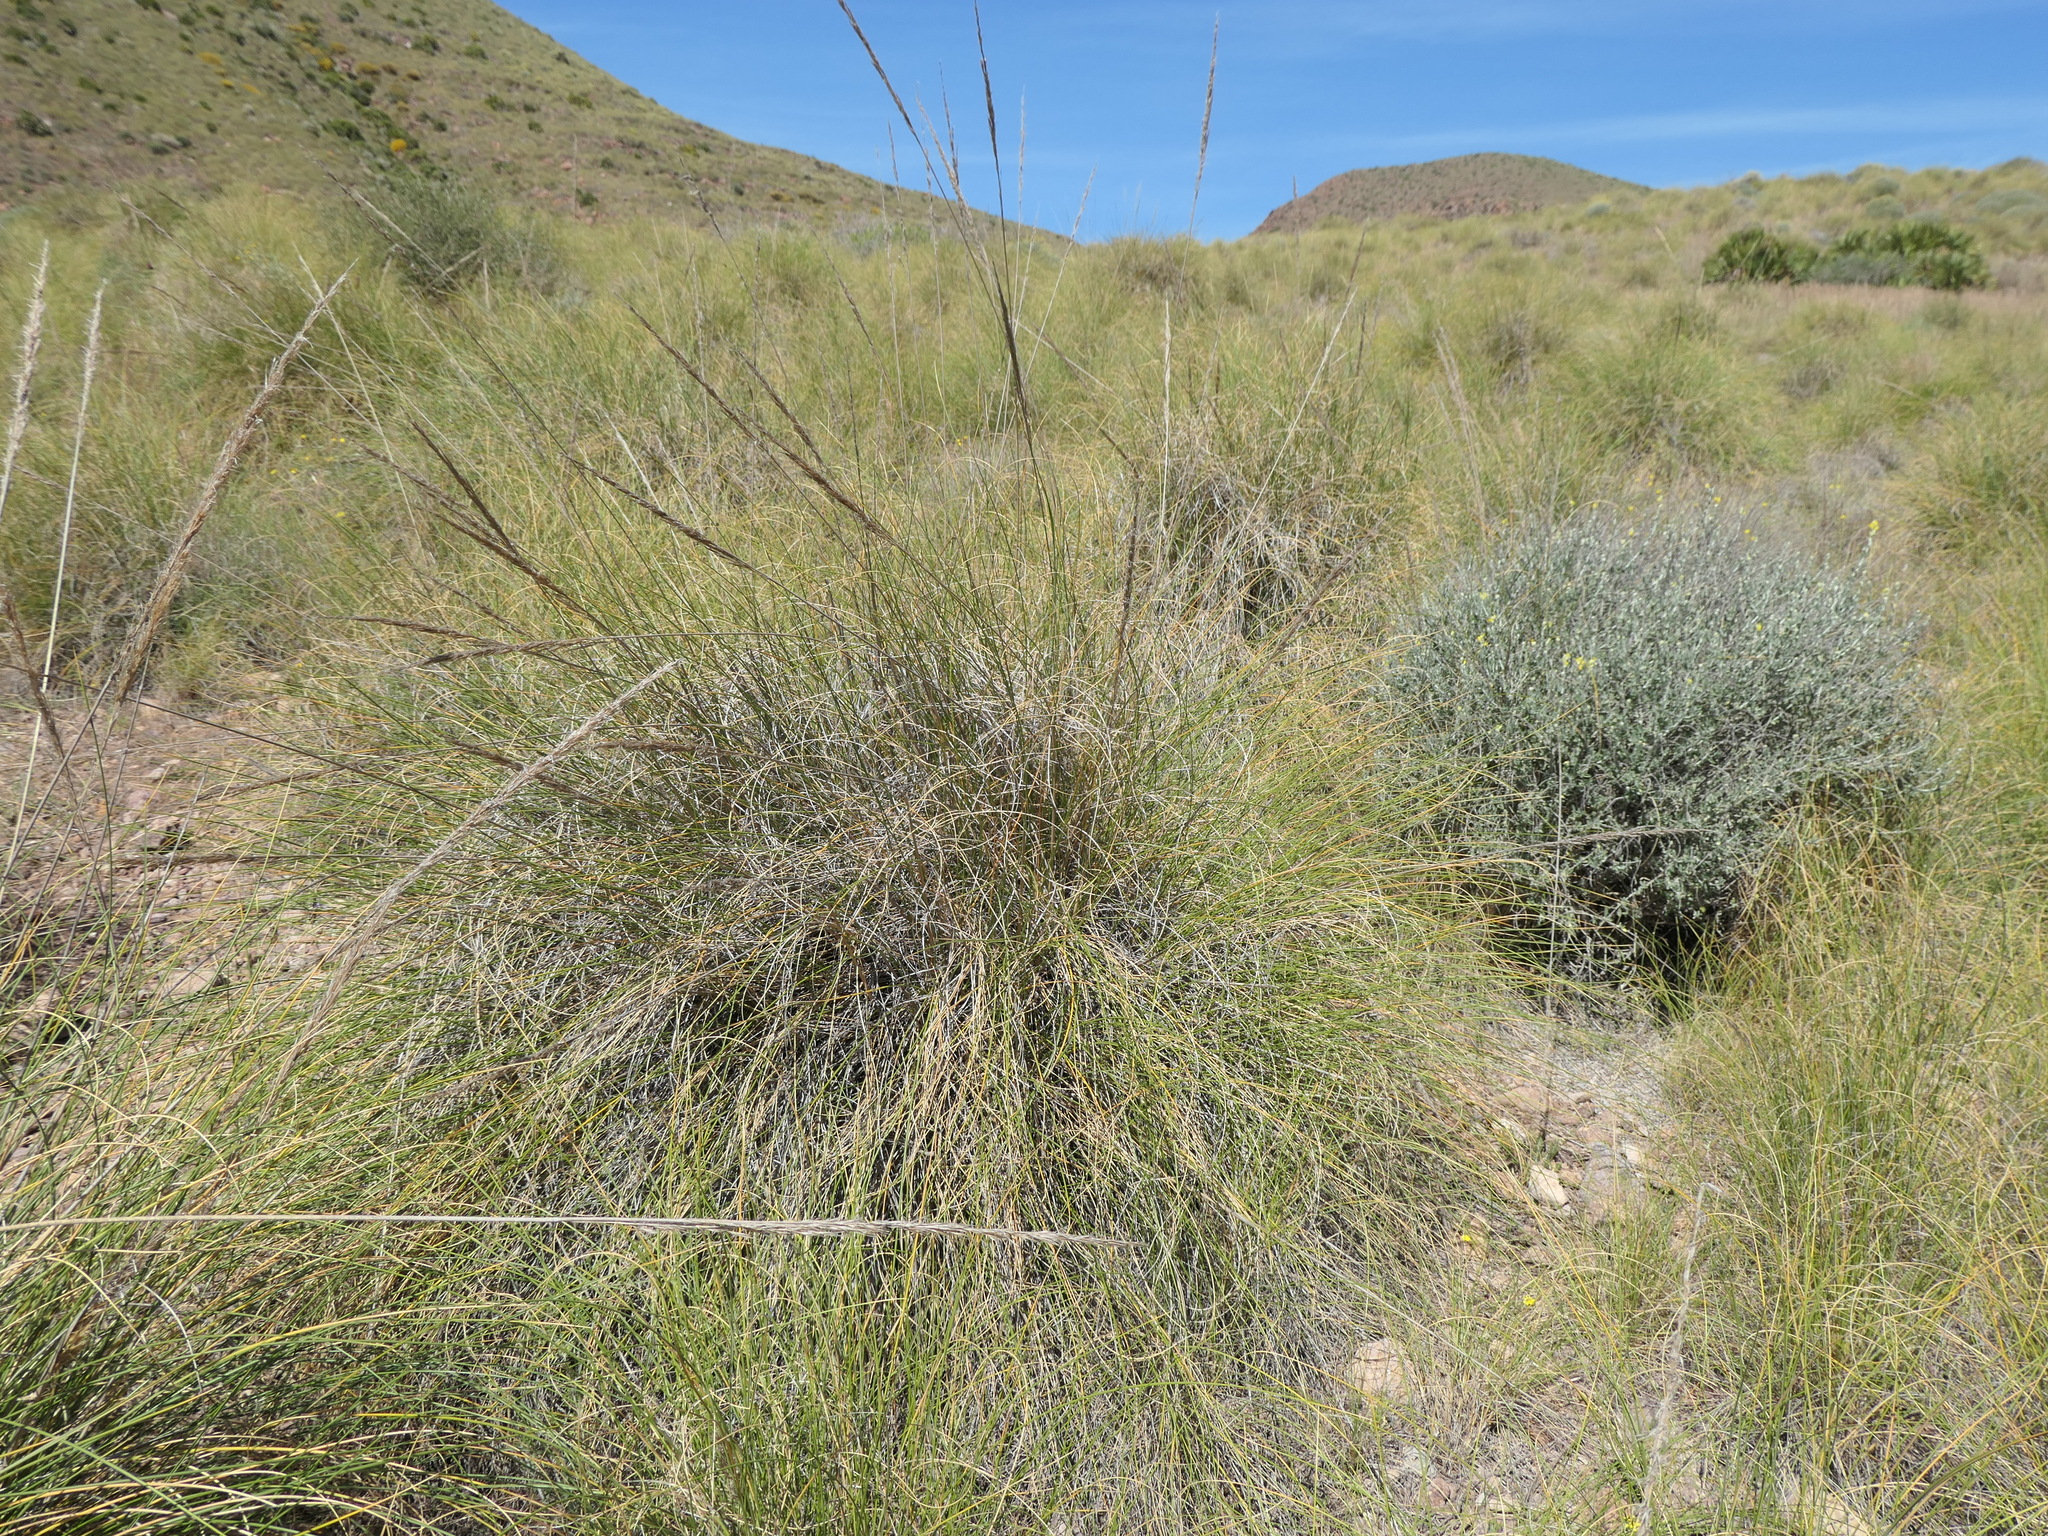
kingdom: Plantae
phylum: Tracheophyta
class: Liliopsida
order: Poales
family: Poaceae
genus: Macrochloa
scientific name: Macrochloa tenacissima
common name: Alfa grass
